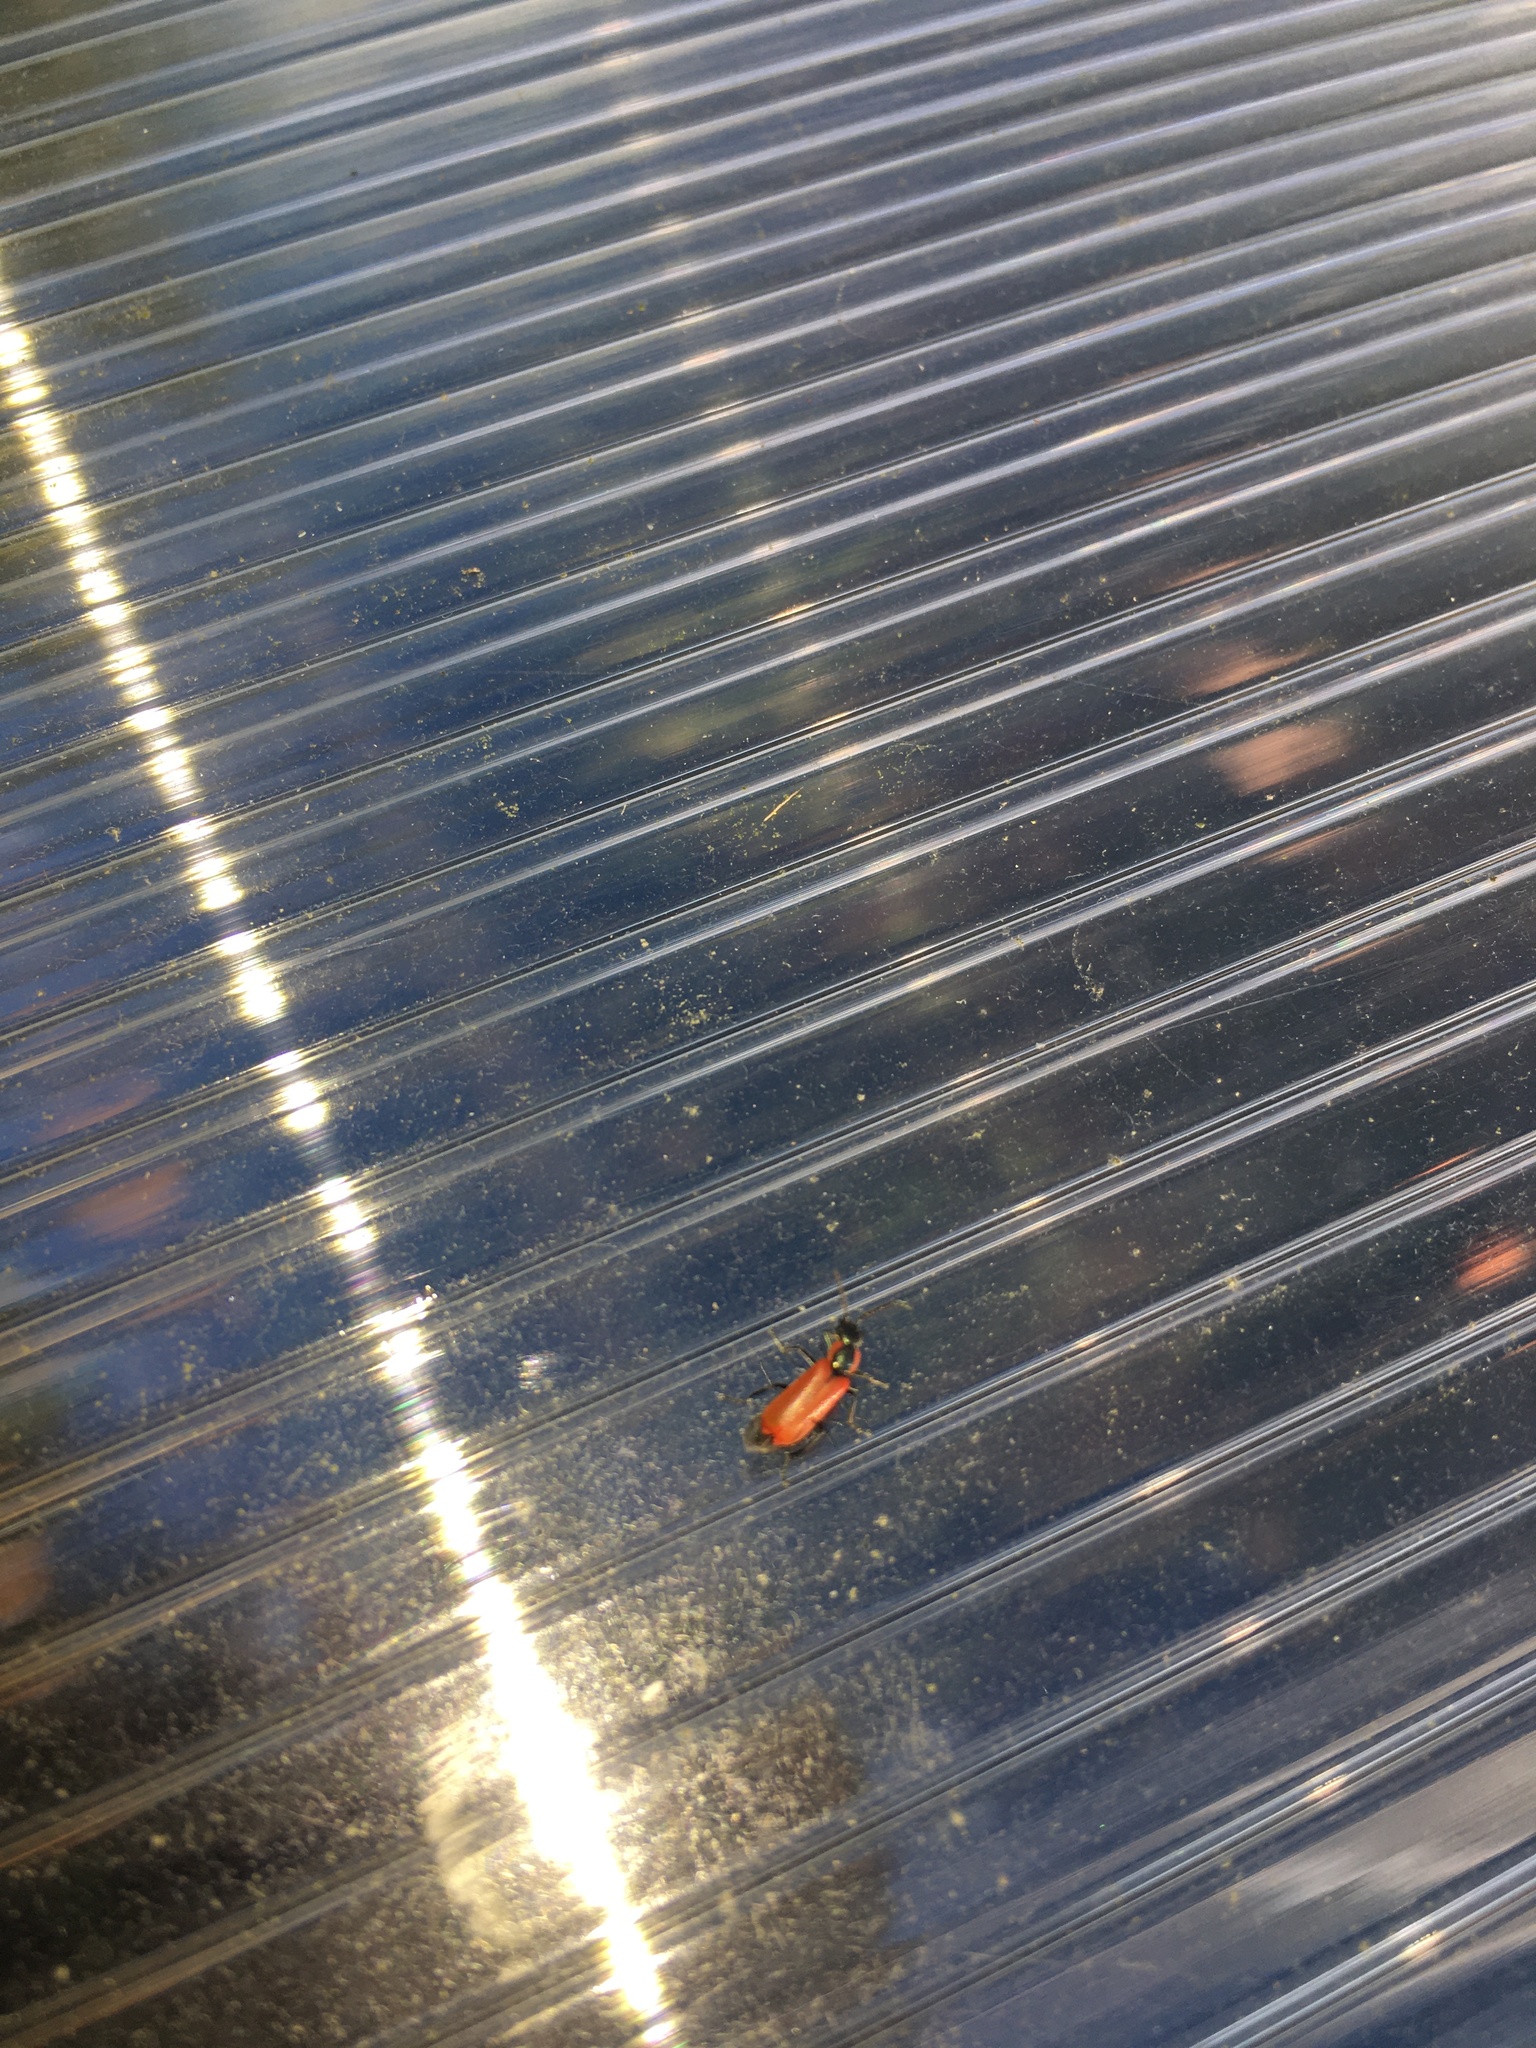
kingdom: Animalia
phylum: Arthropoda
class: Insecta
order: Coleoptera
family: Melyridae
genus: Anthocomus
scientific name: Anthocomus rufus
